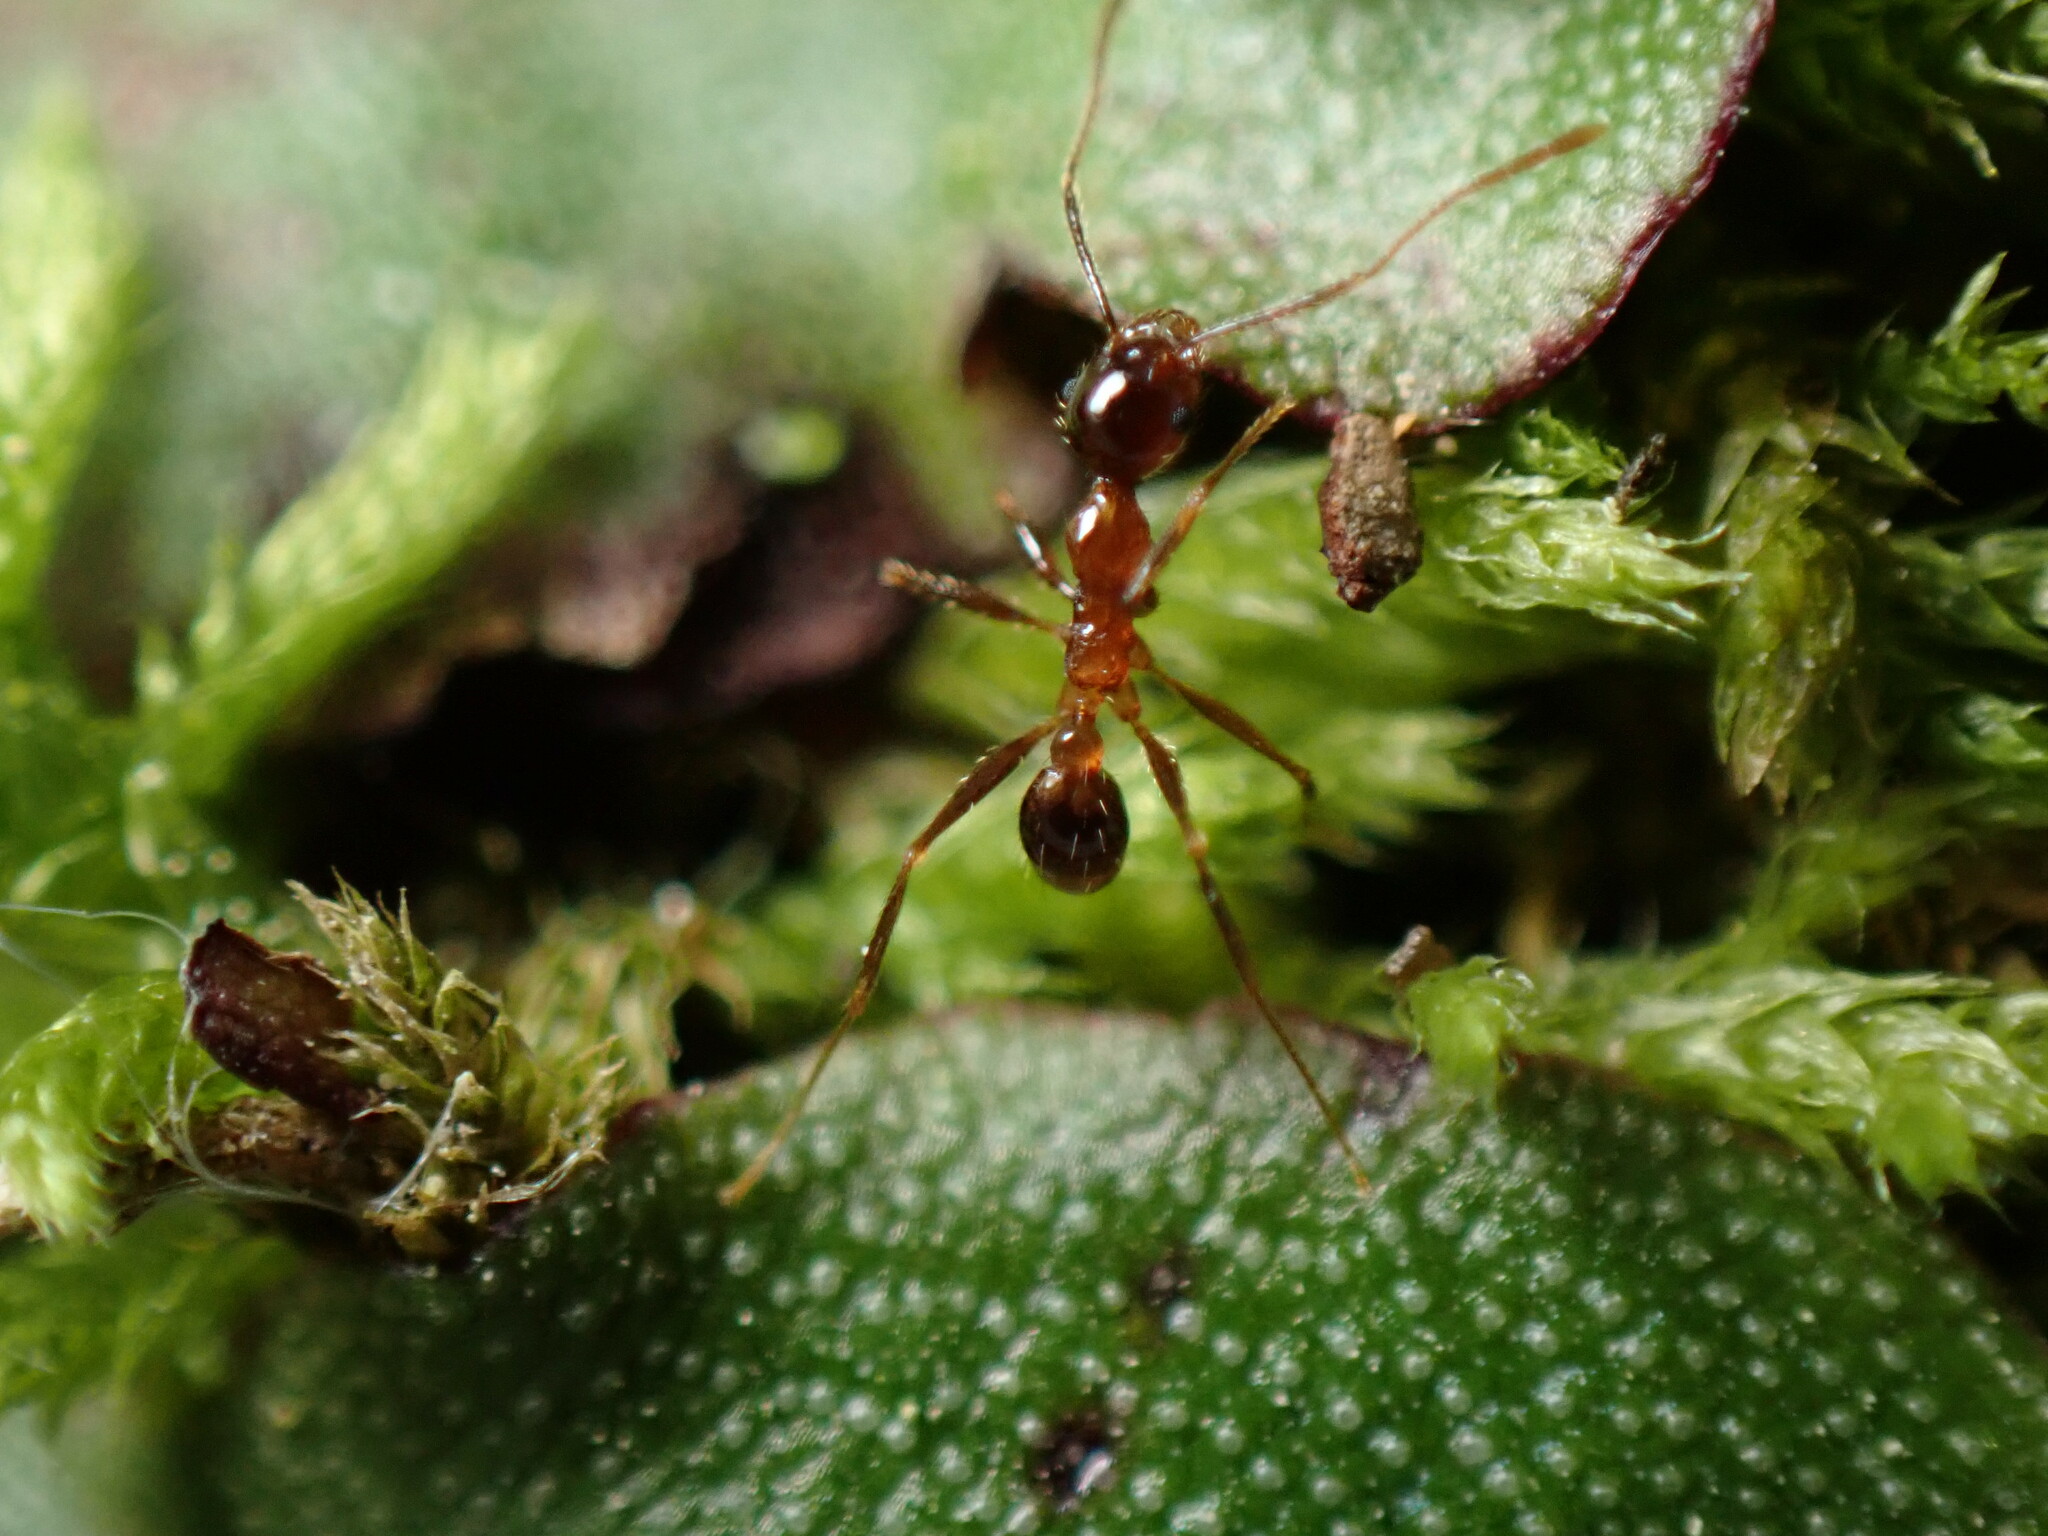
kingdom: Animalia
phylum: Arthropoda
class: Insecta
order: Hymenoptera
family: Formicidae
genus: Pheidole
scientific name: Pheidole noda
